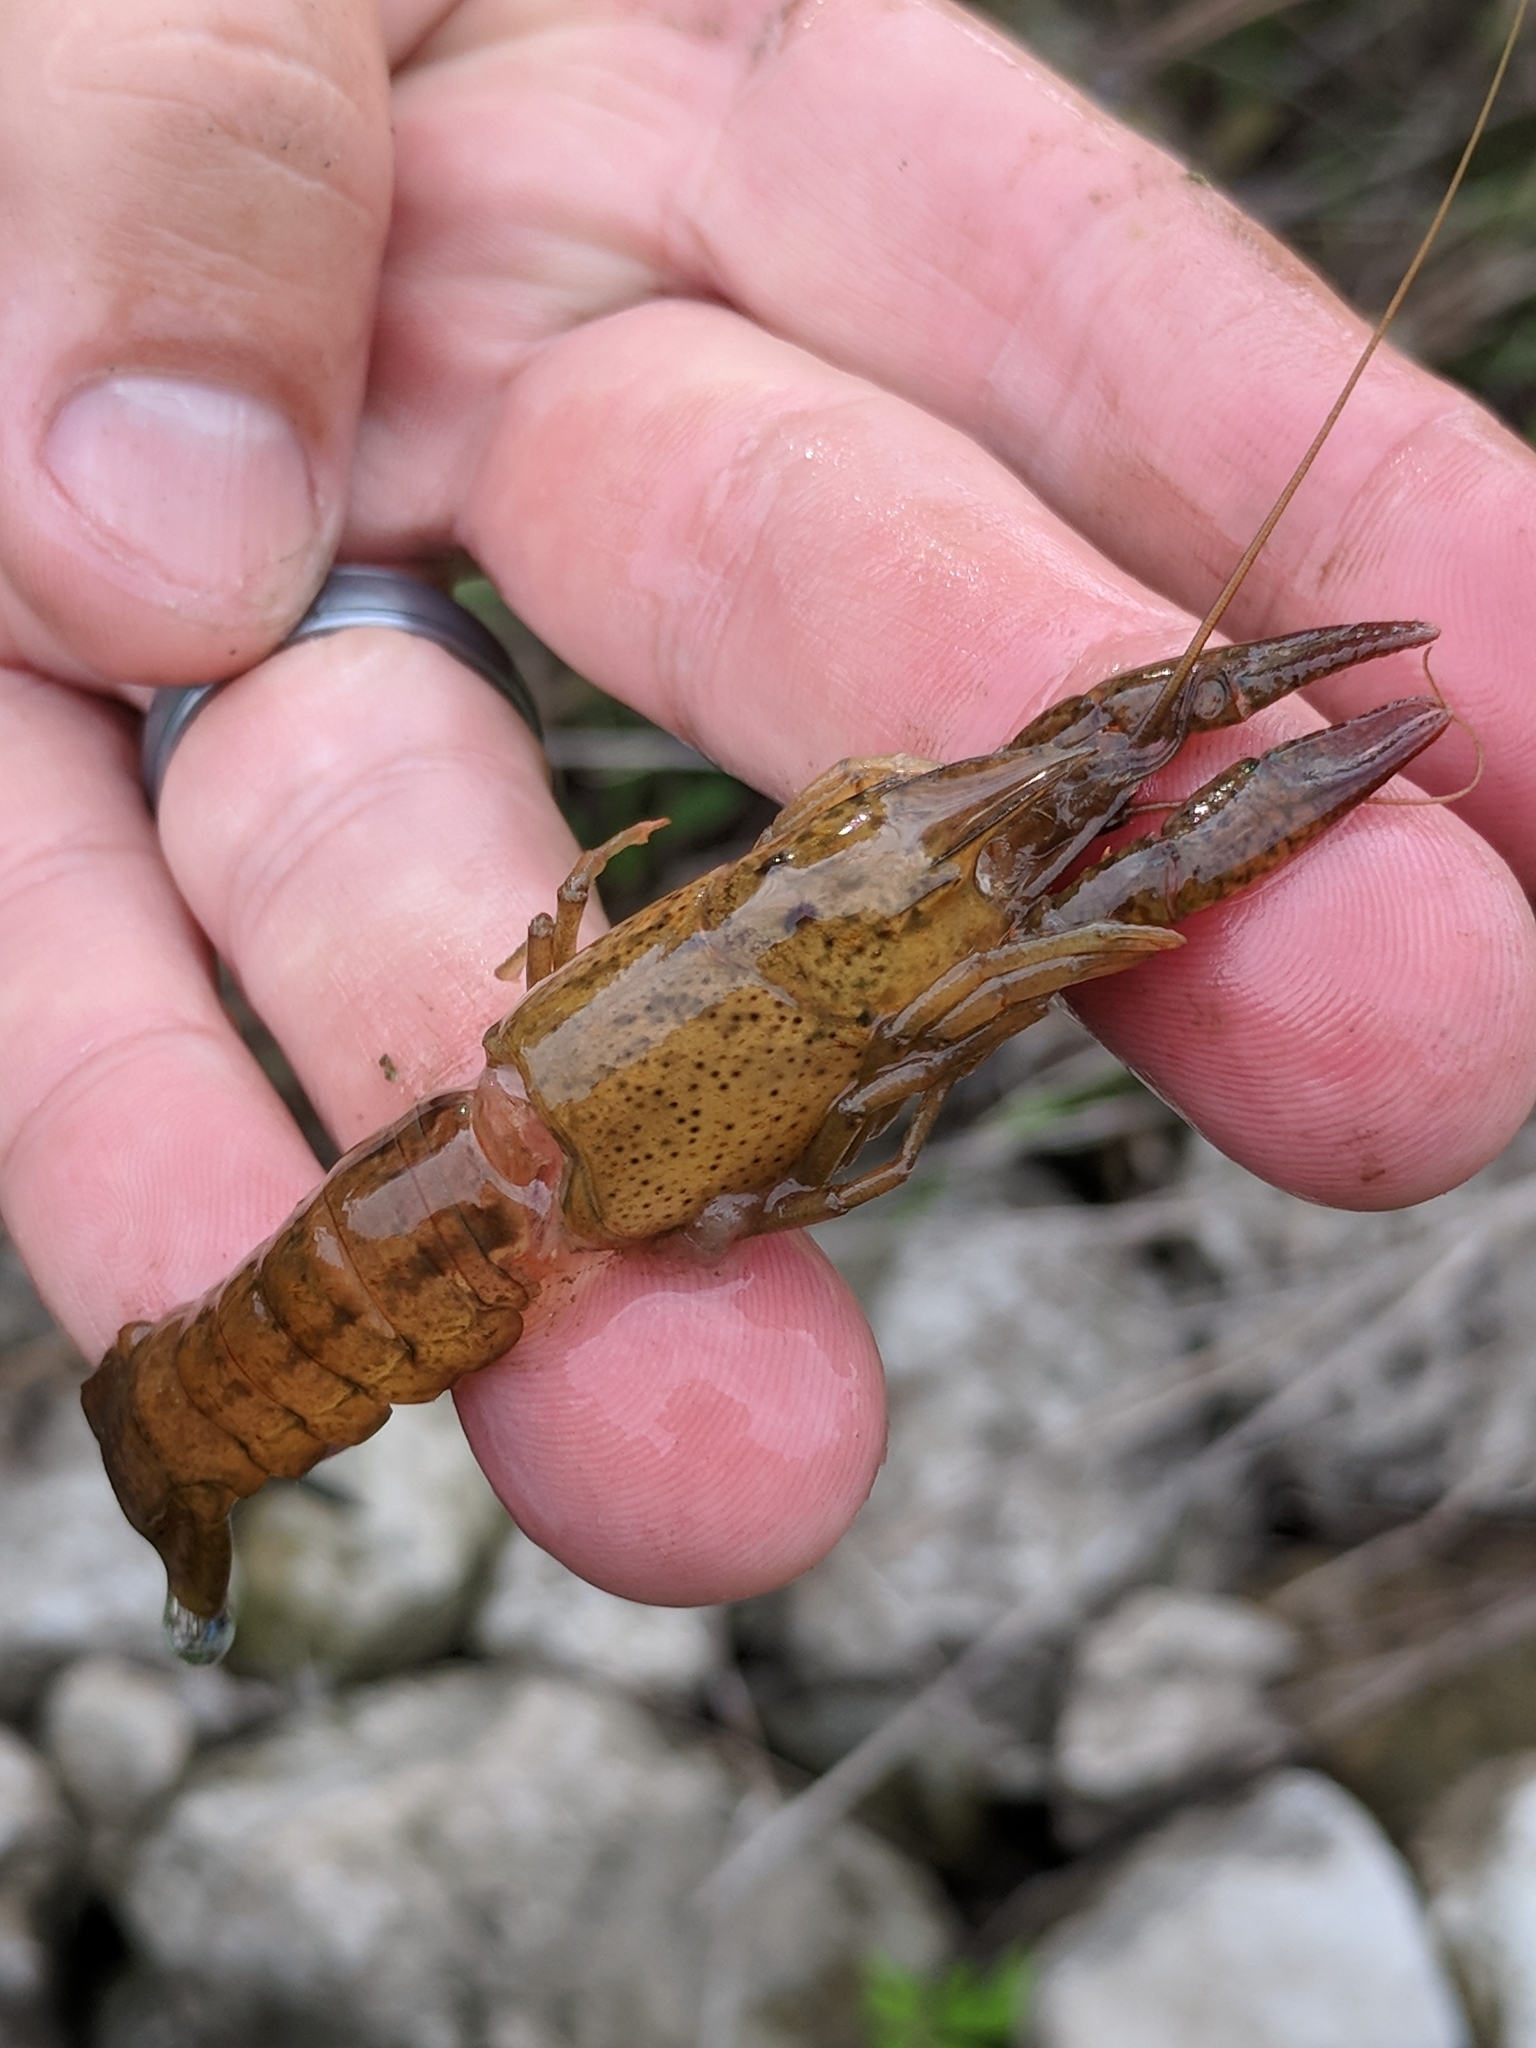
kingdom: Animalia
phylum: Arthropoda
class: Malacostraca
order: Decapoda
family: Cambaridae
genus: Procambarus
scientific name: Procambarus clarkii
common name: Red swamp crayfish
